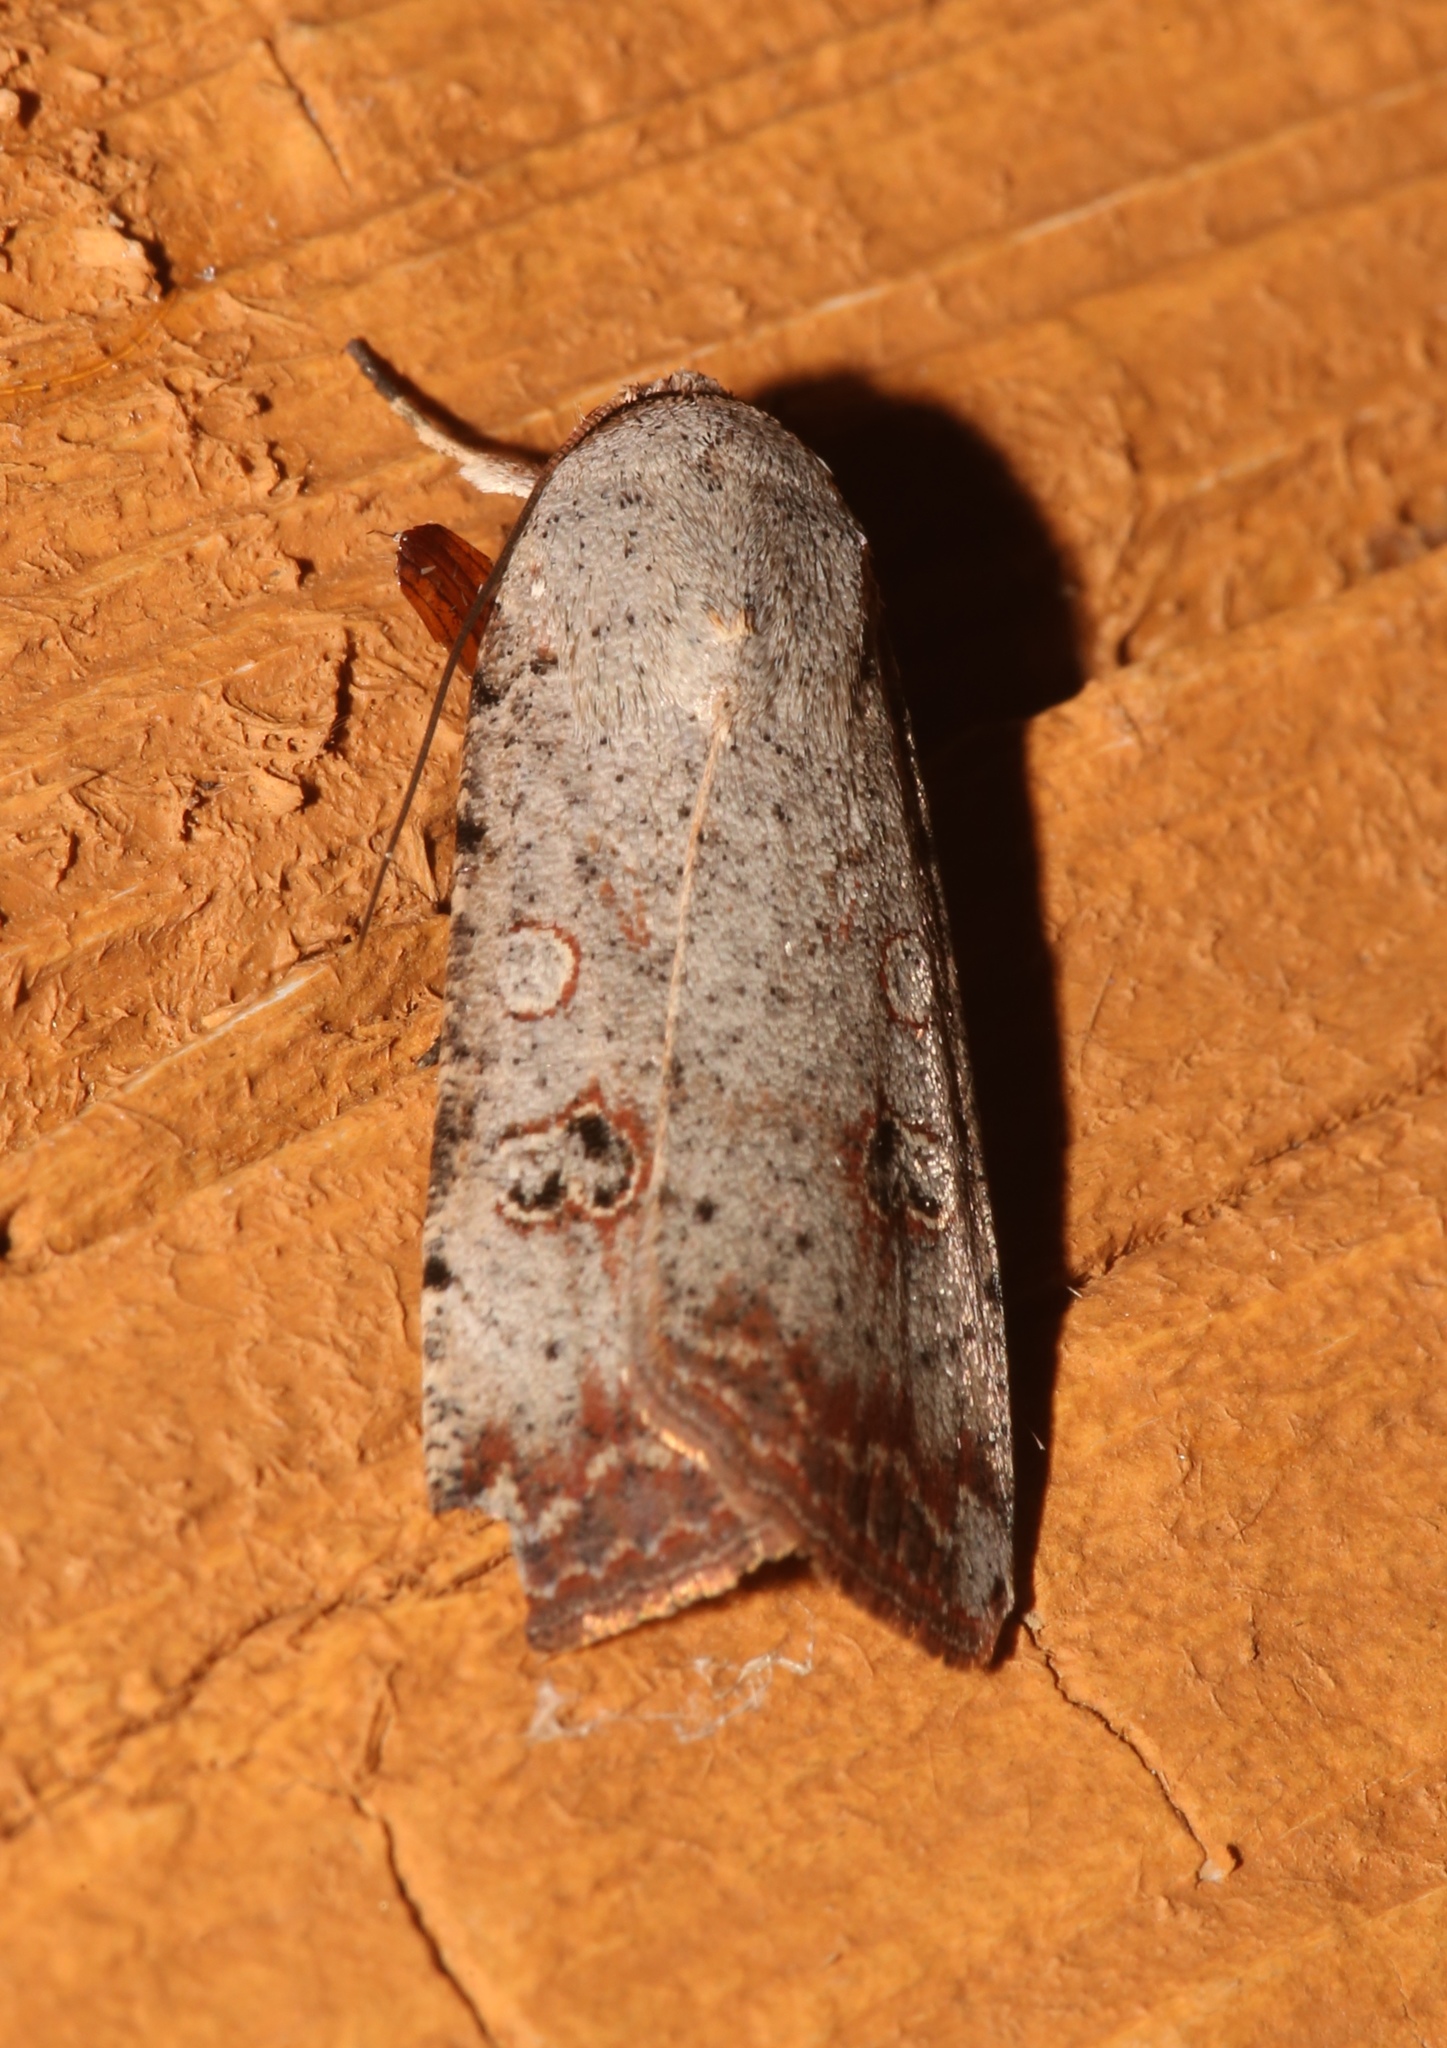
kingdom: Animalia
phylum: Arthropoda
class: Insecta
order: Lepidoptera
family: Noctuidae
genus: Anicla
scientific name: Anicla infecta
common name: Green cutworm
